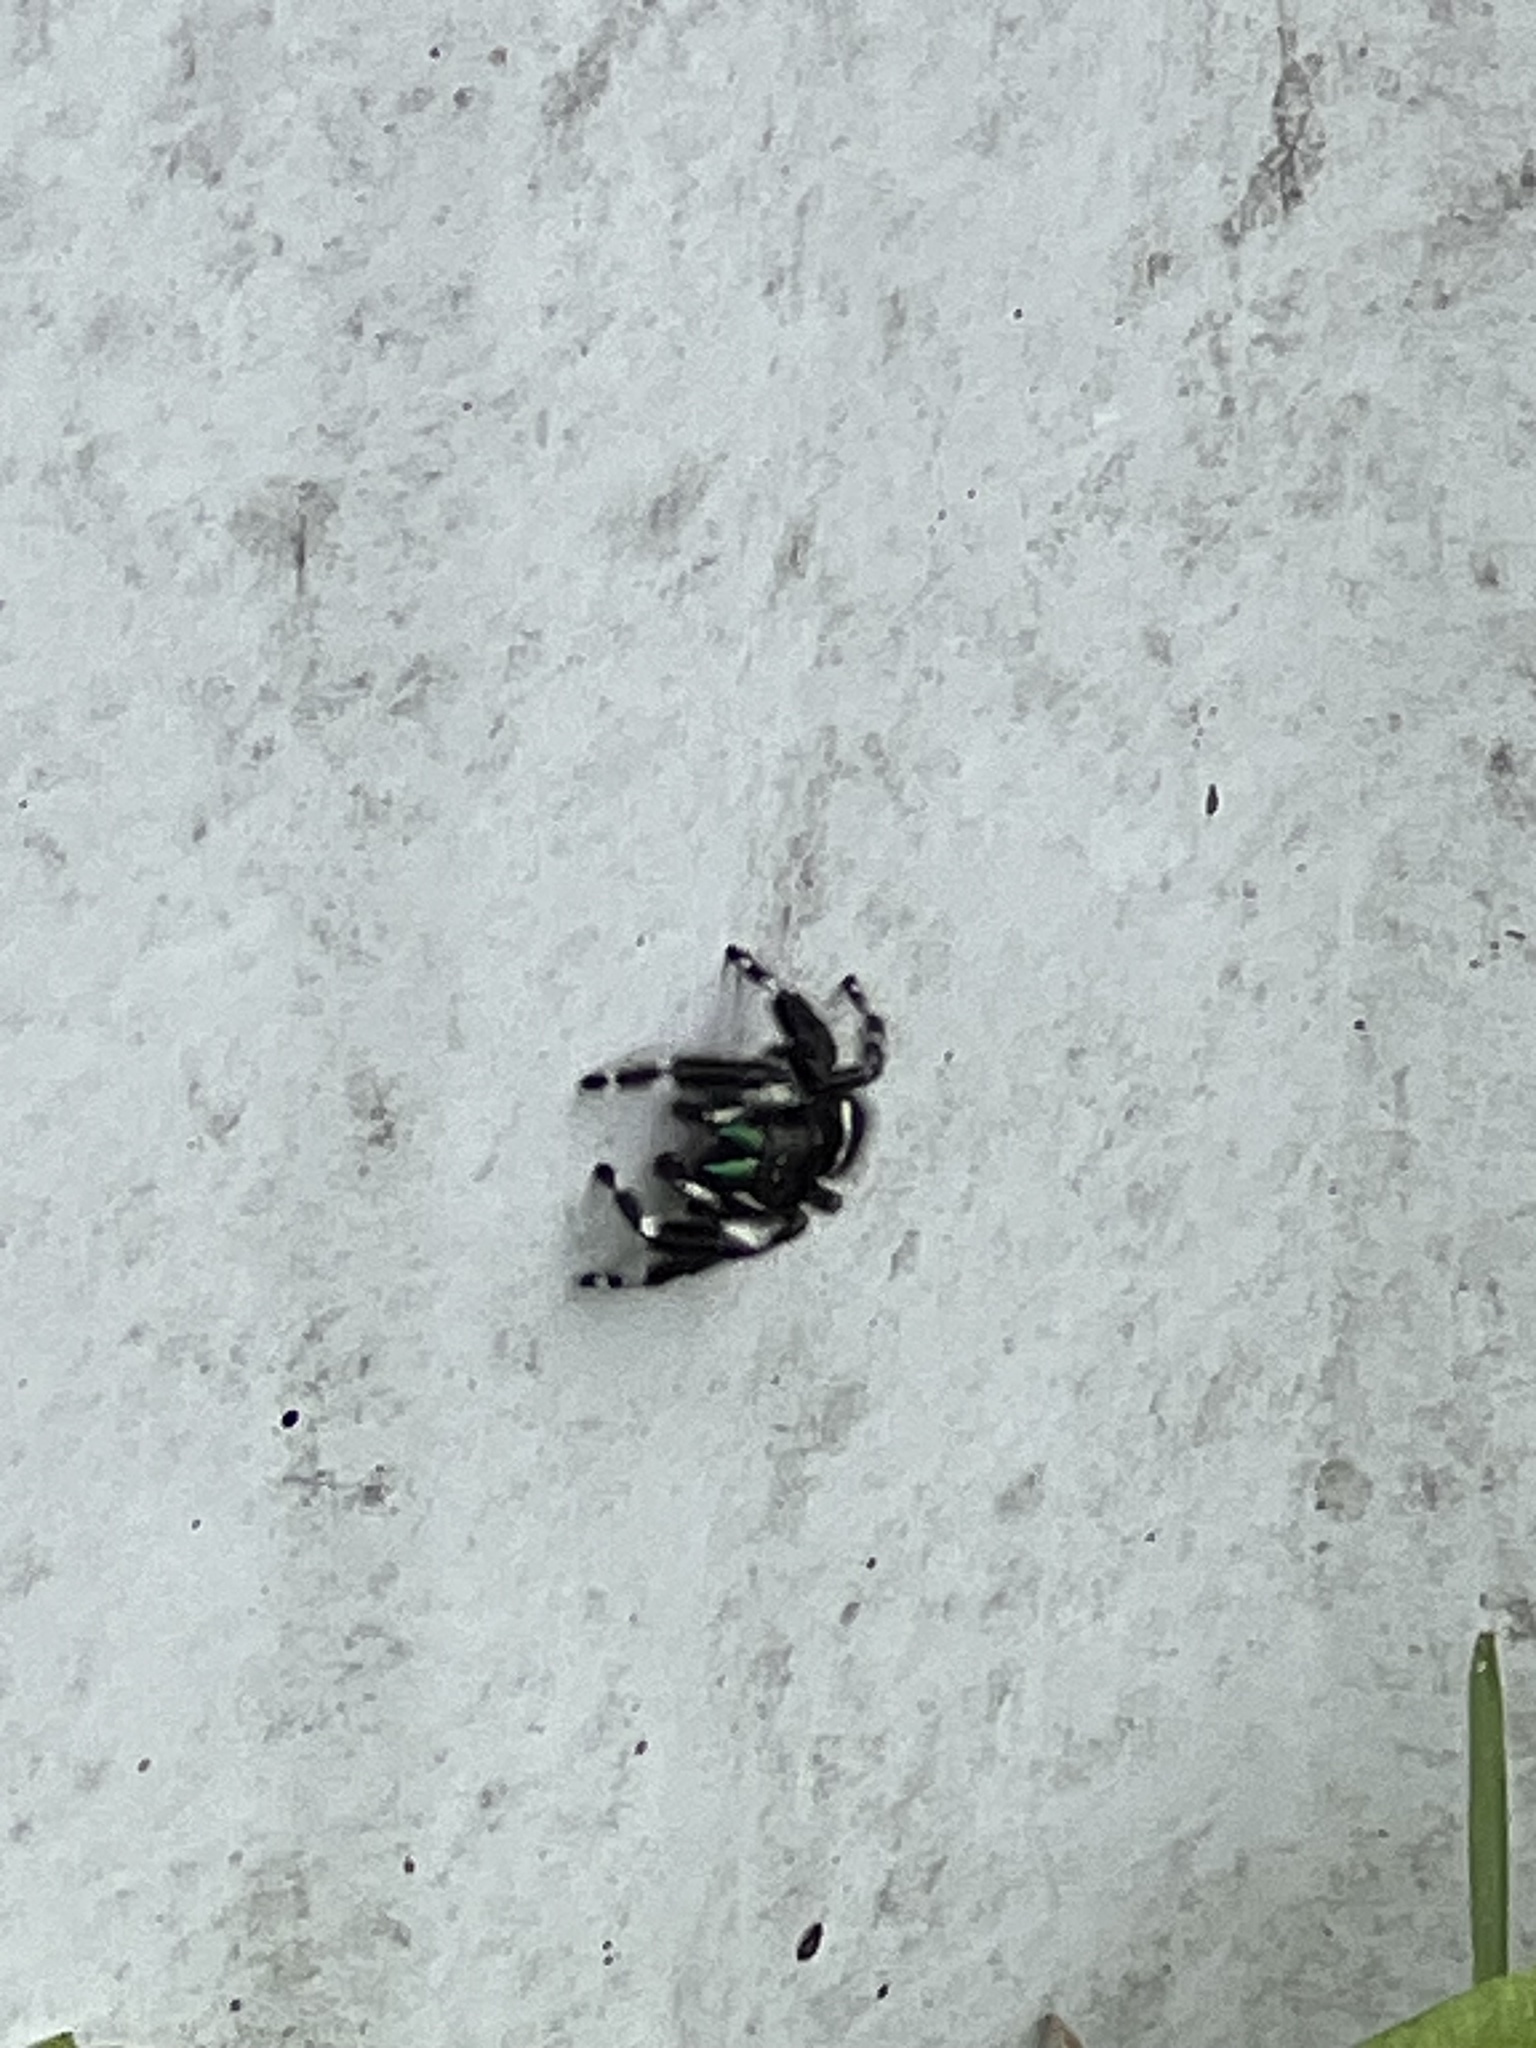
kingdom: Animalia
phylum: Arthropoda
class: Arachnida
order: Araneae
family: Salticidae
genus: Phidippus
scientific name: Phidippus audax
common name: Bold jumper
